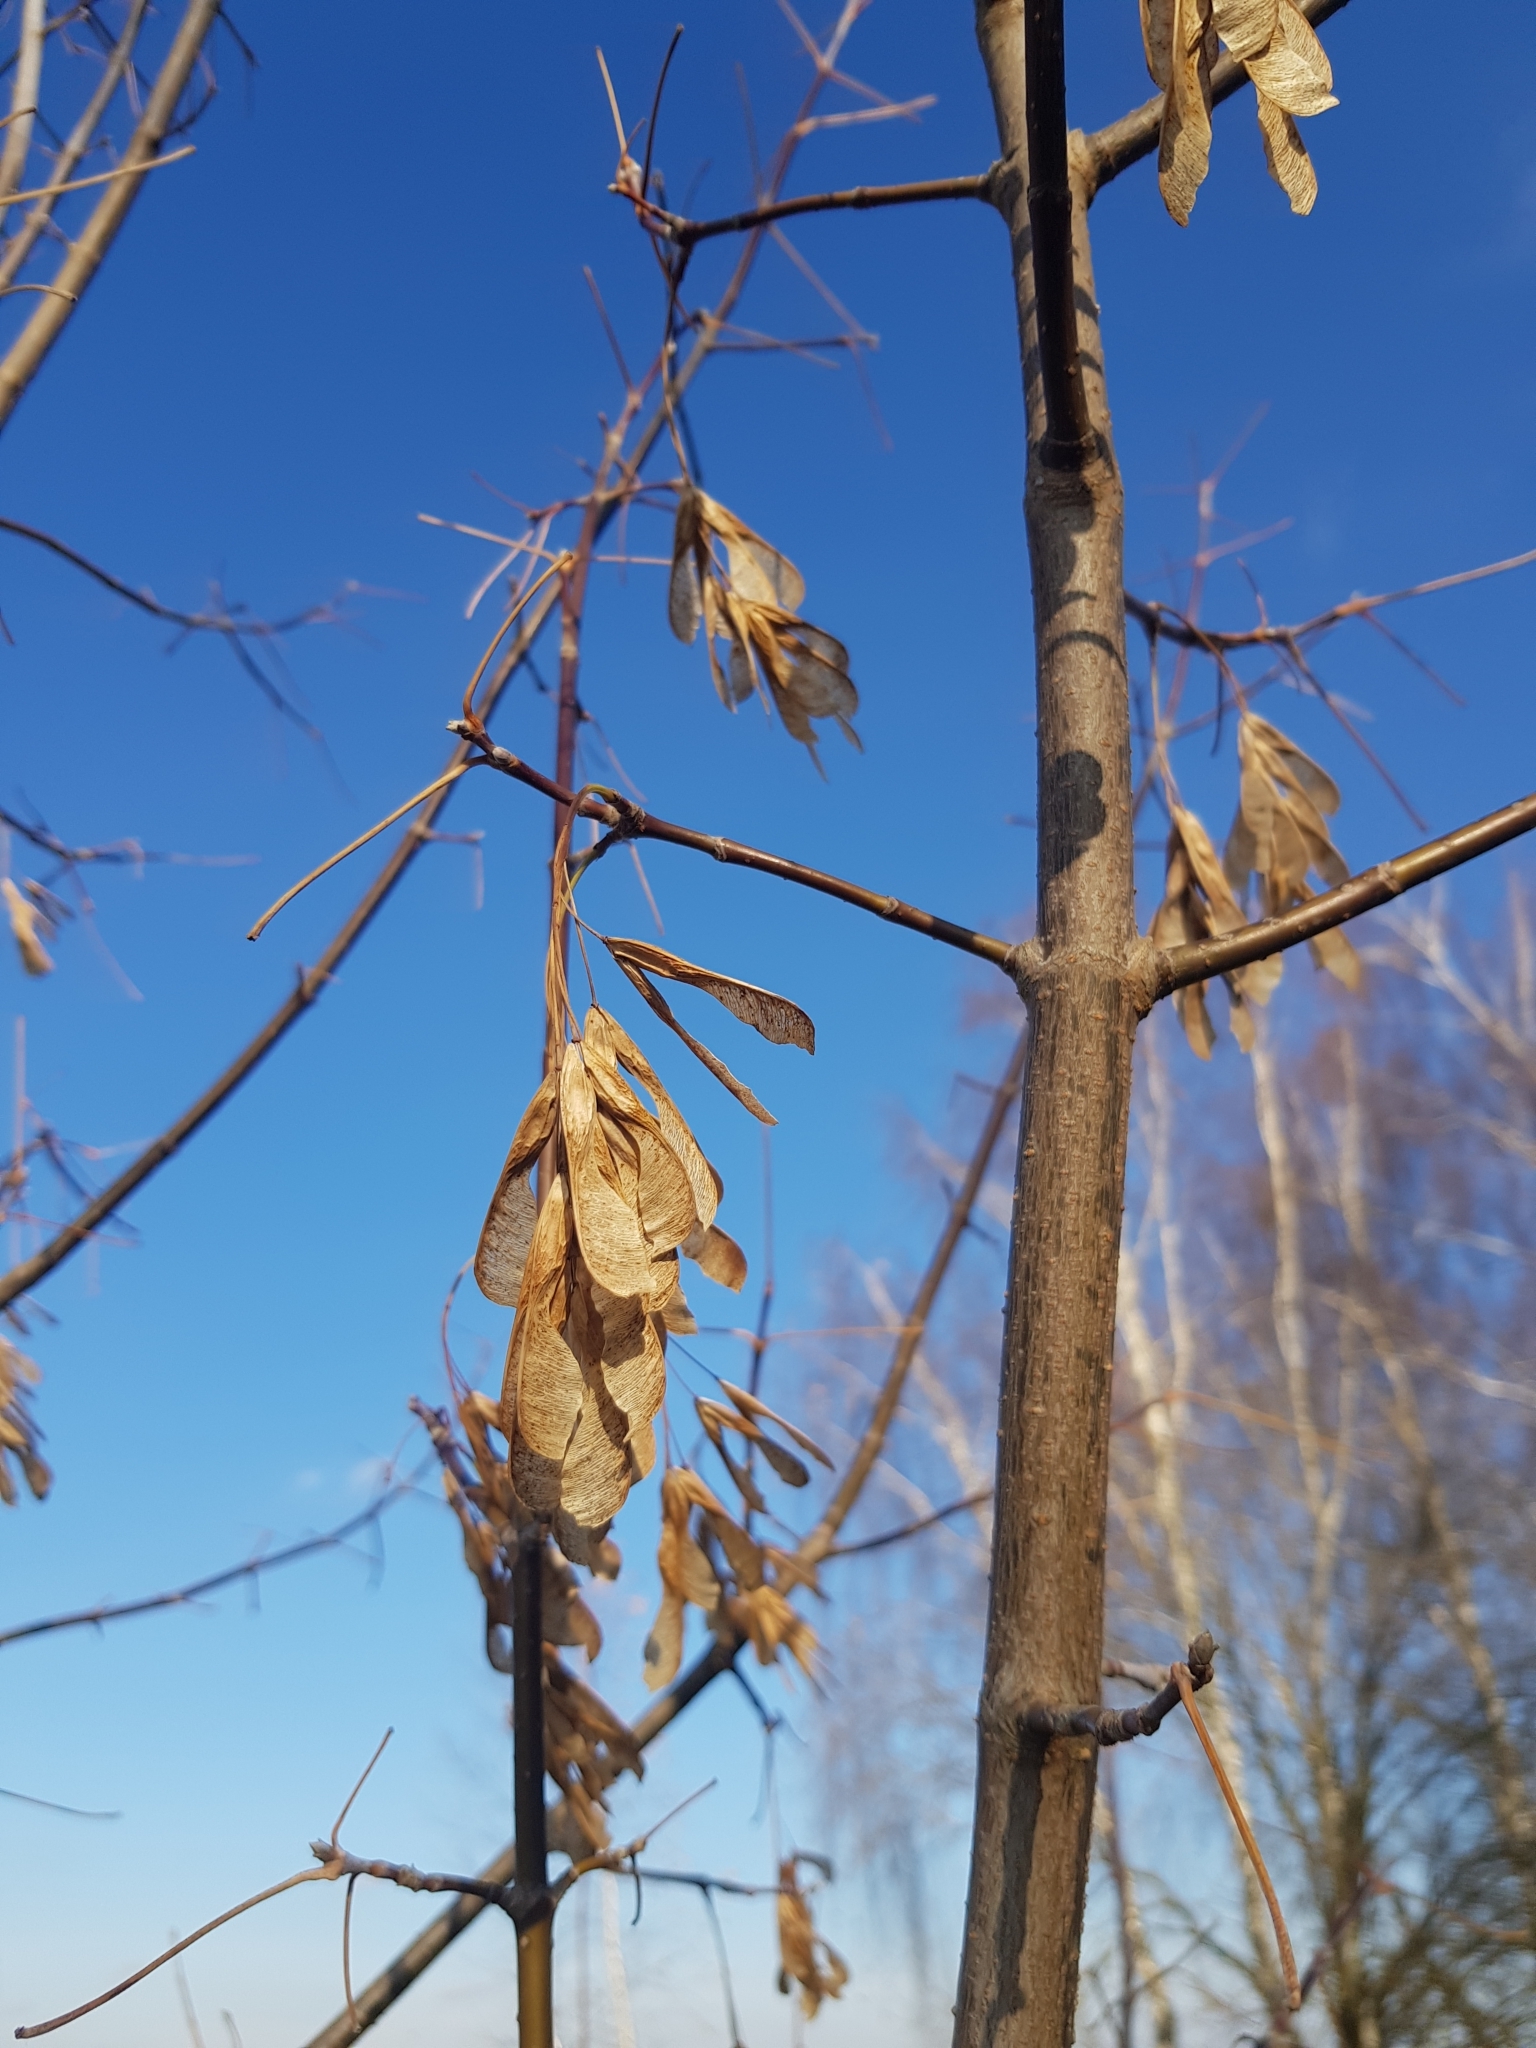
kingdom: Plantae
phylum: Tracheophyta
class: Magnoliopsida
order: Sapindales
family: Sapindaceae
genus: Acer
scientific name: Acer negundo
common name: Ashleaf maple
